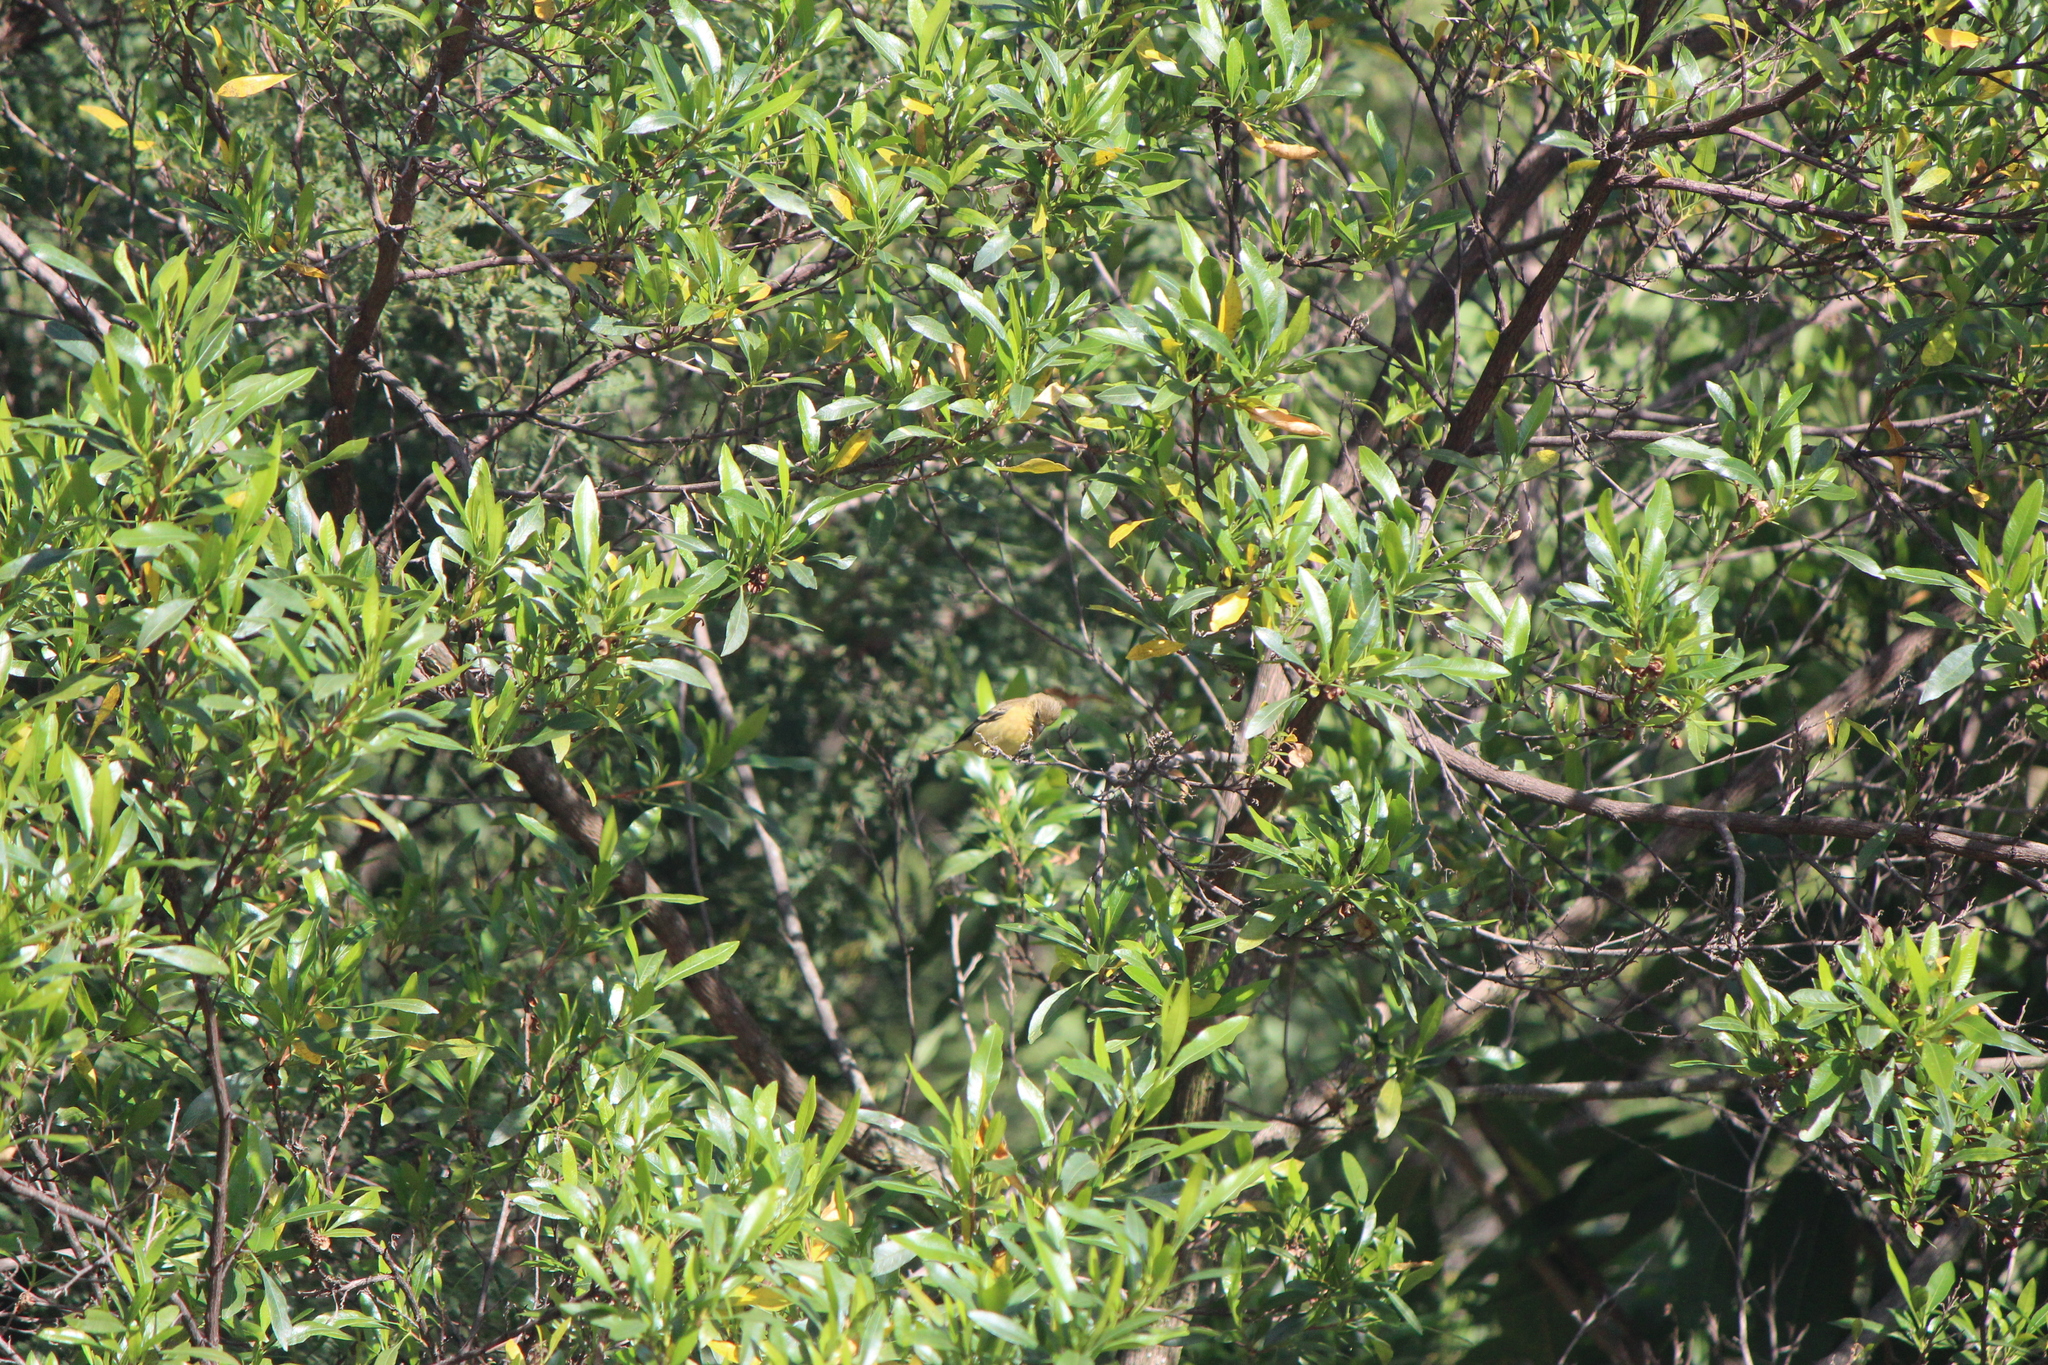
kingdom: Animalia
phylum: Chordata
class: Aves
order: Passeriformes
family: Fringillidae
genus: Spinus
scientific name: Spinus psaltria
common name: Lesser goldfinch
